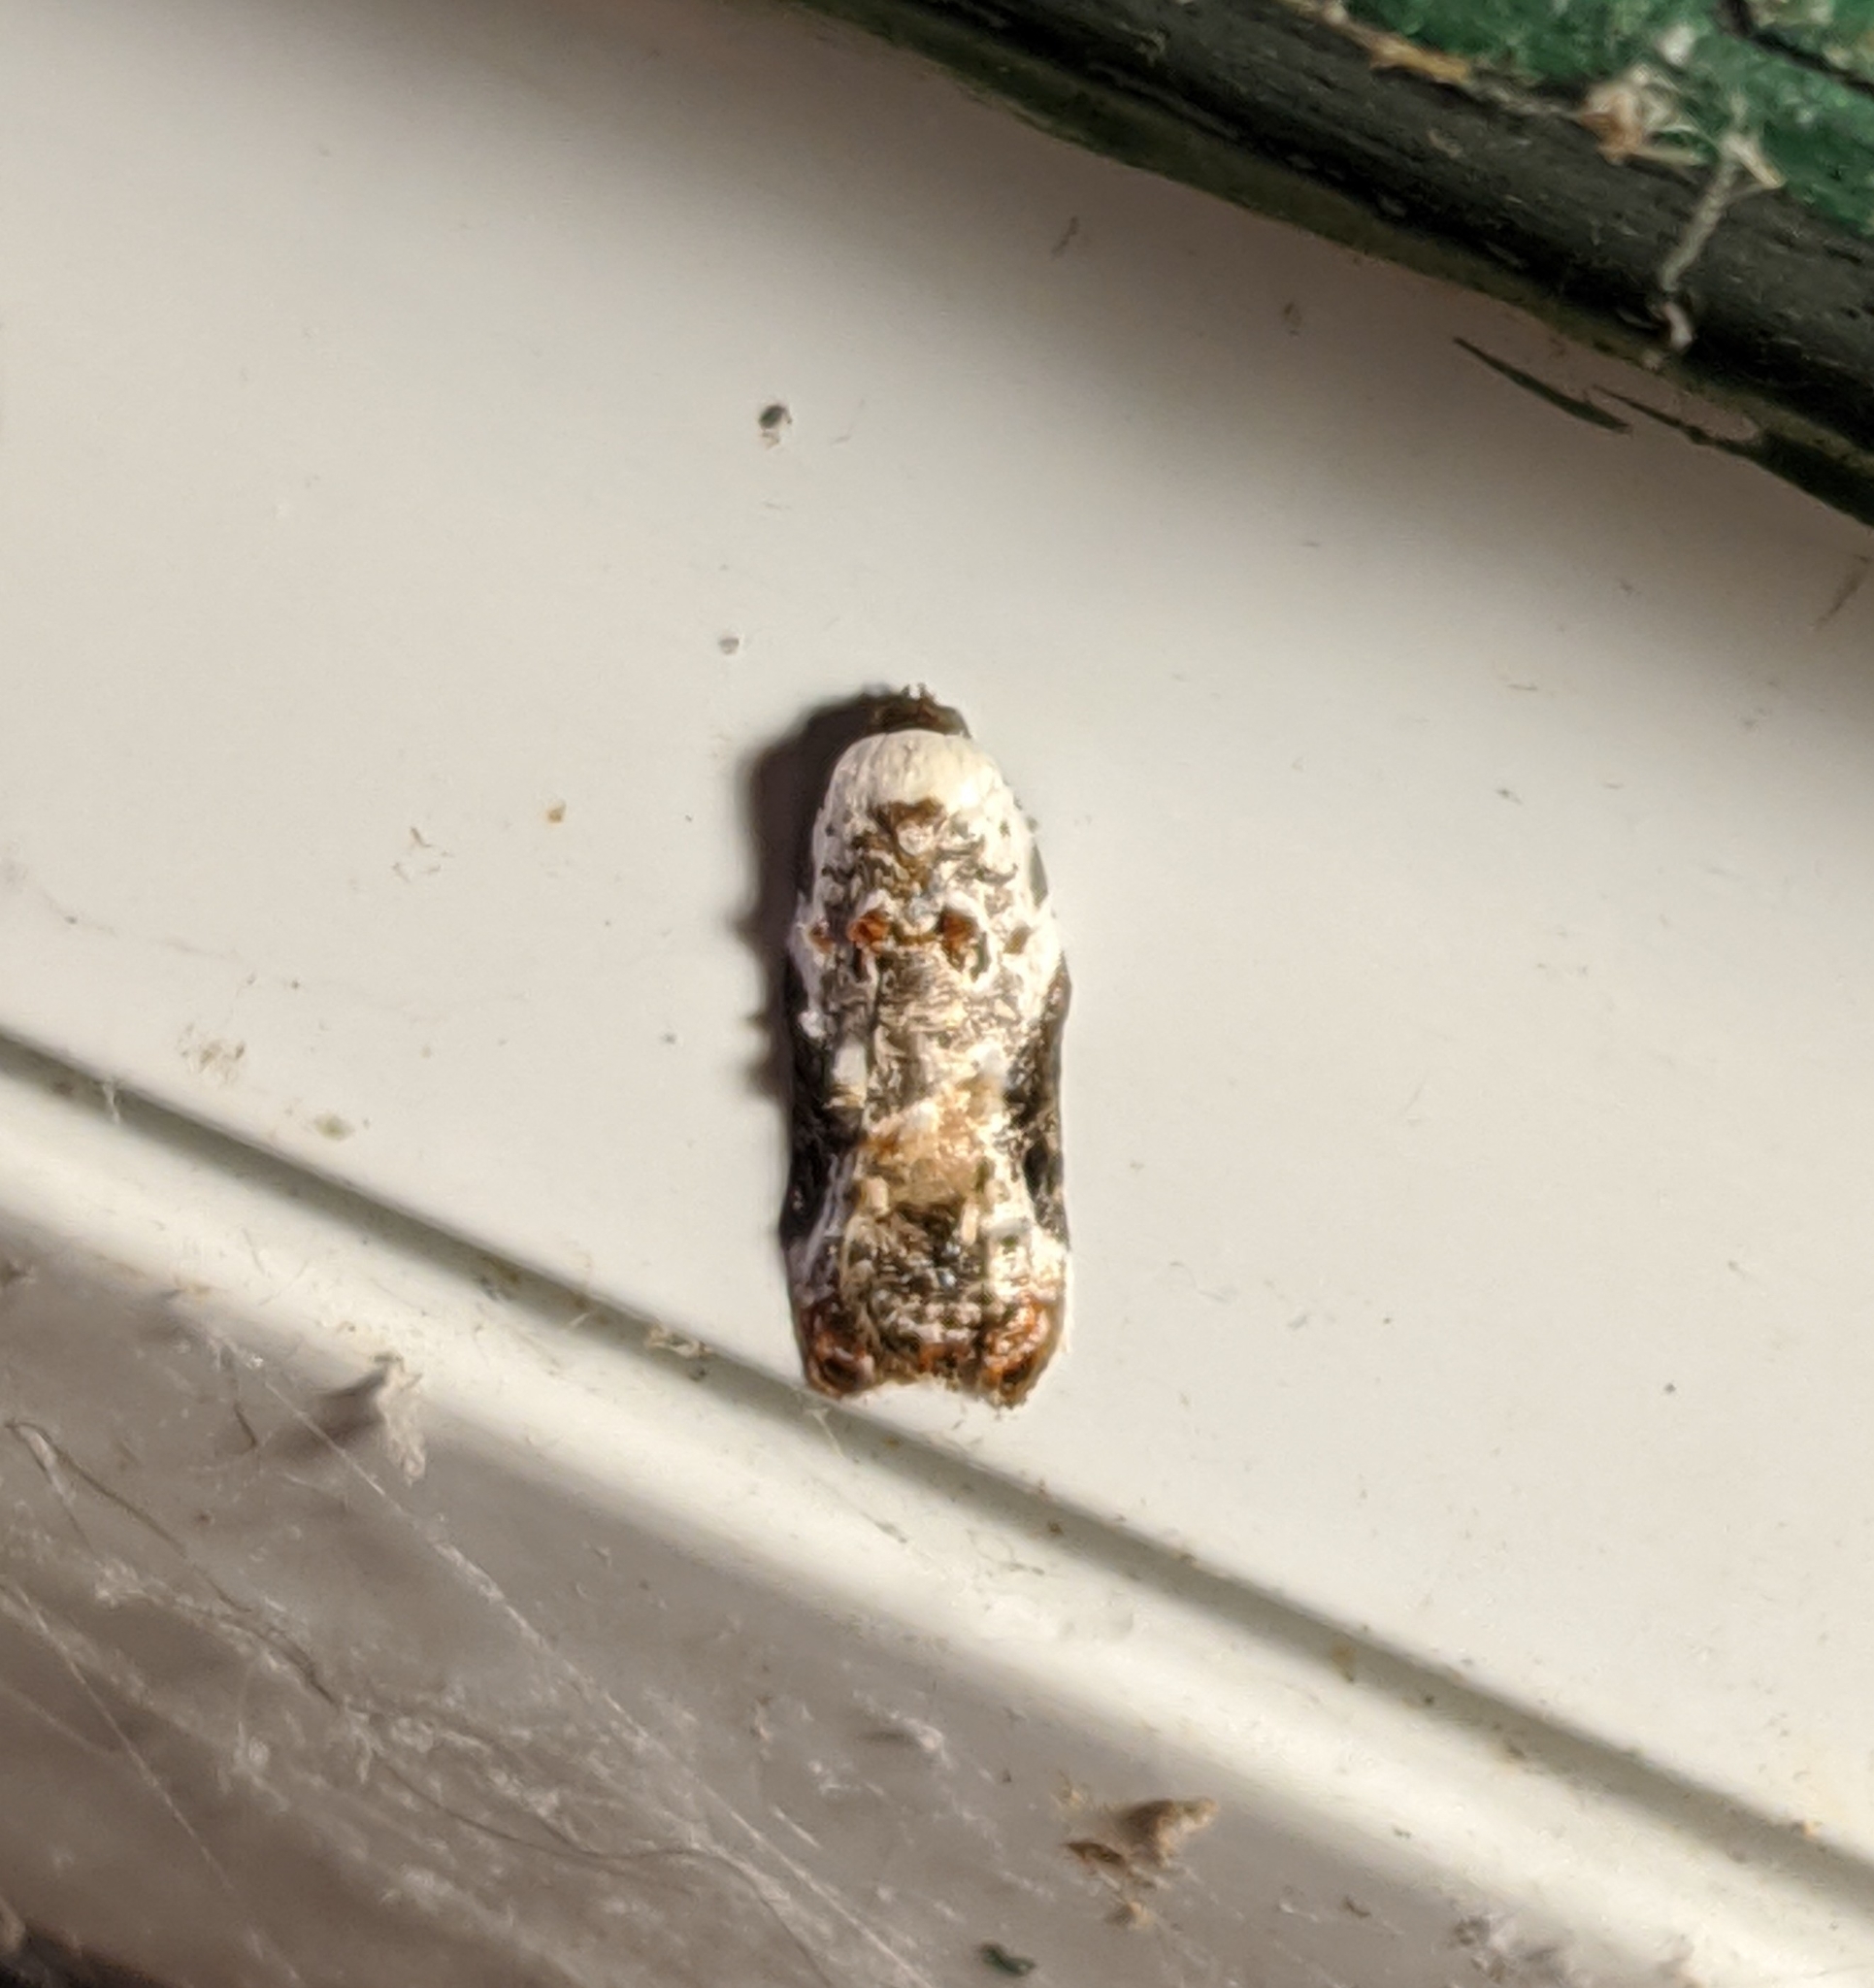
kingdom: Animalia
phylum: Arthropoda
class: Insecta
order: Lepidoptera
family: Tortricidae
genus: Acleris
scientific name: Acleris nivisellana
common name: Snowy-shouldered acleris moth
